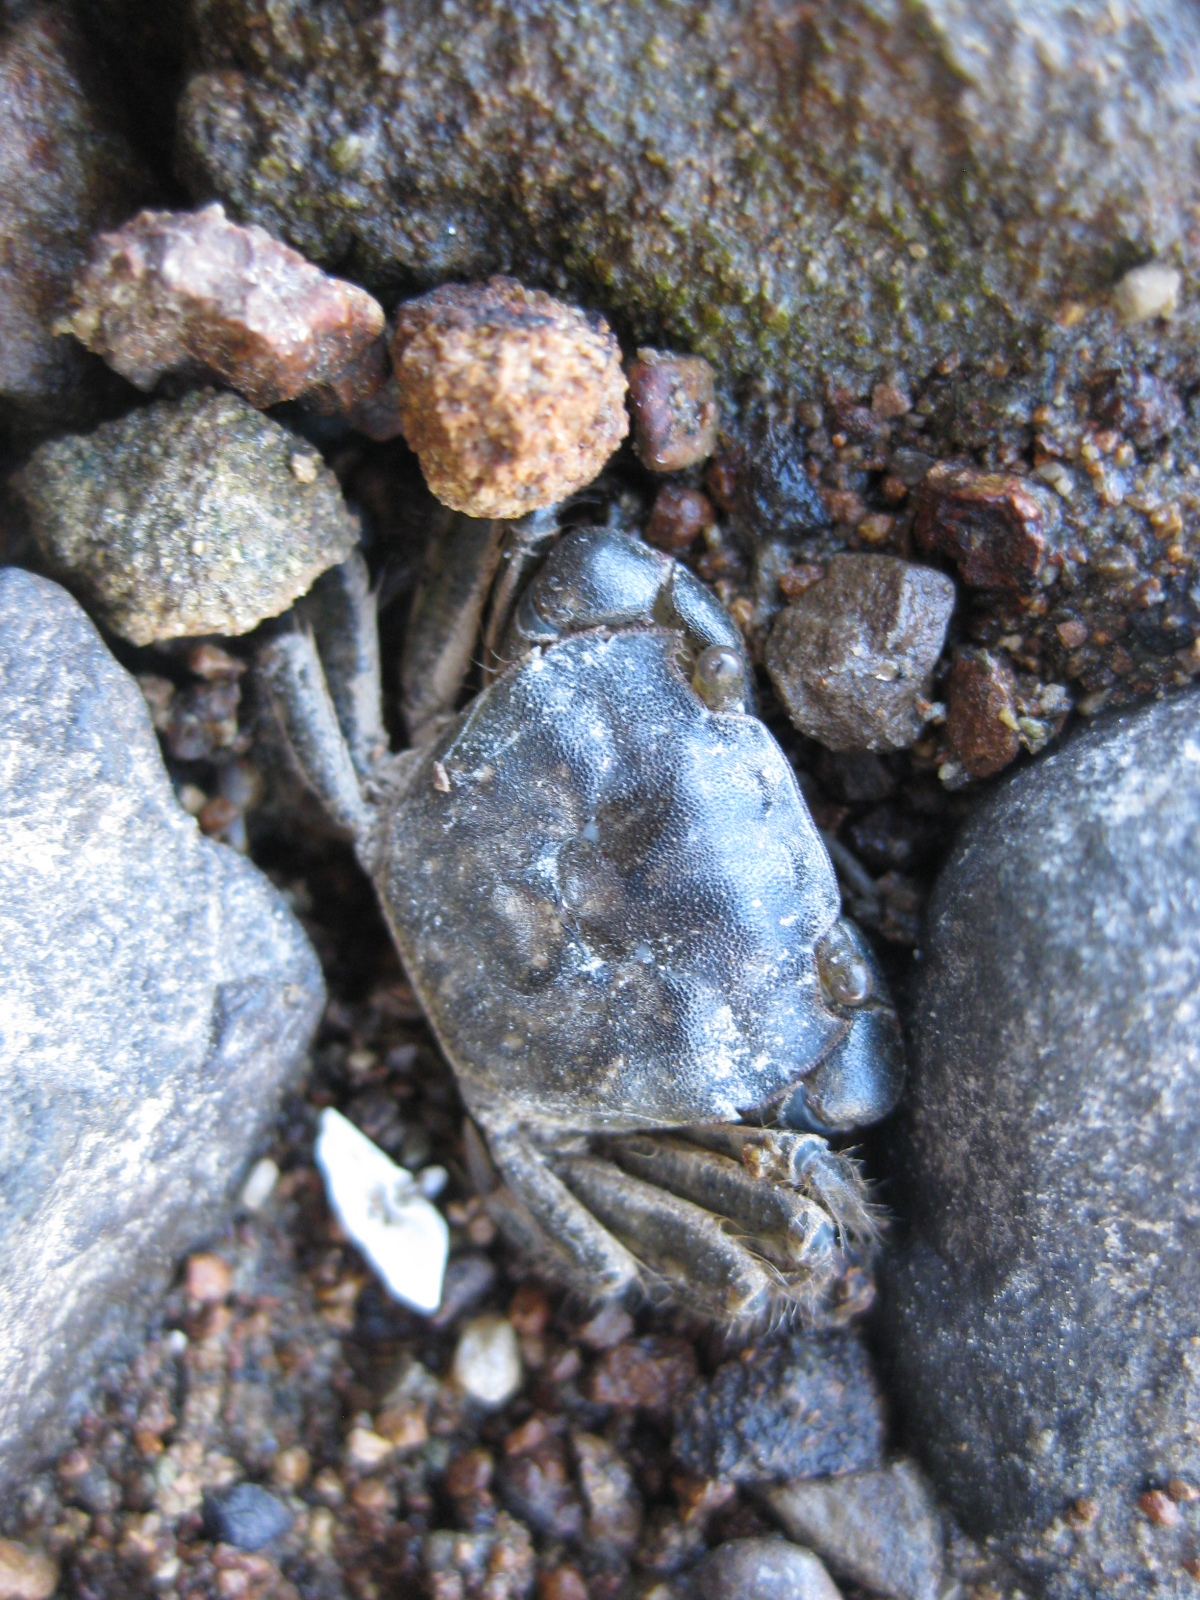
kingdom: Animalia
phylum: Arthropoda
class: Malacostraca
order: Decapoda
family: Varunidae
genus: Hemigrapsus
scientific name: Hemigrapsus crenulatus
